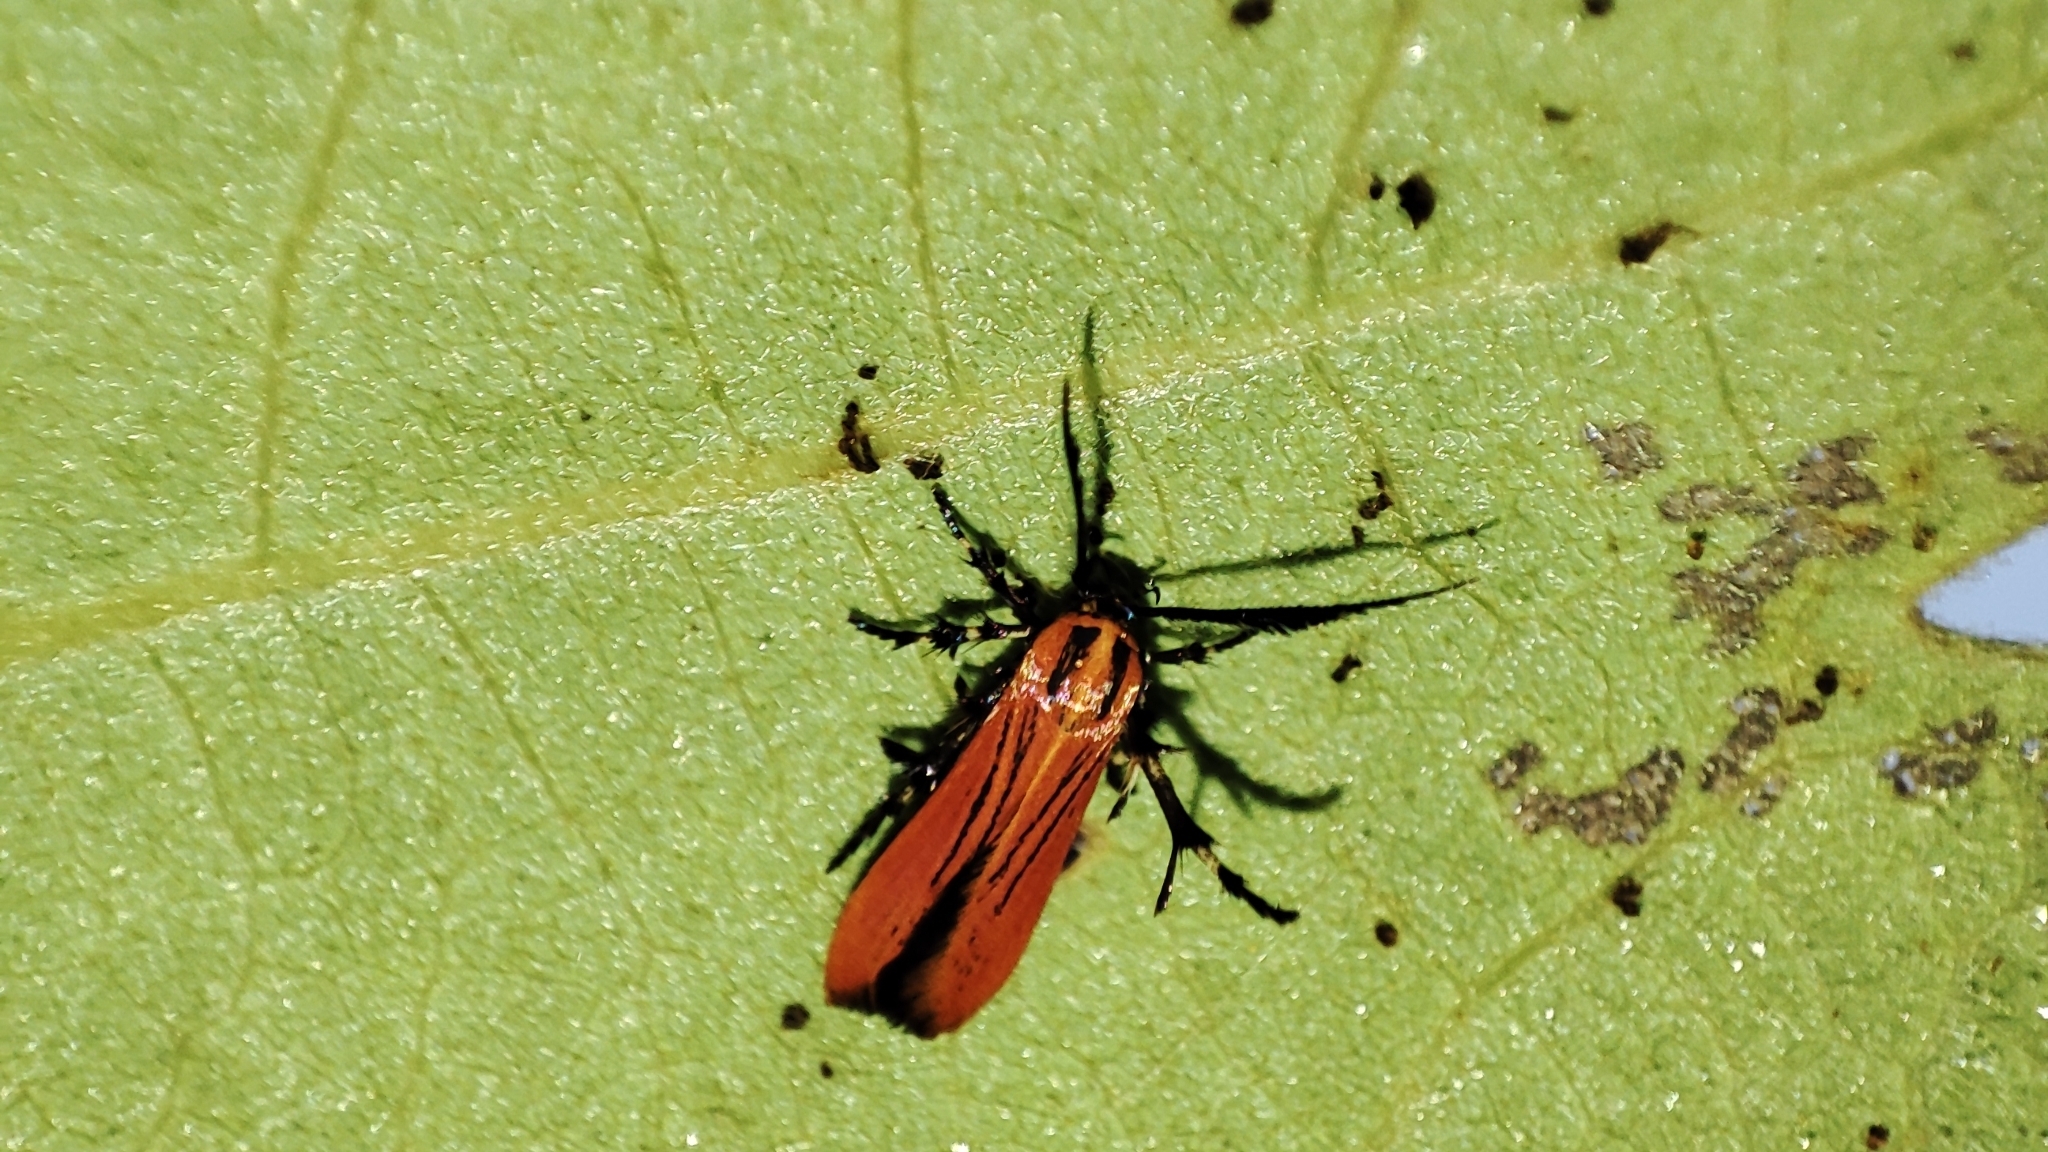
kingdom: Animalia
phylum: Arthropoda
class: Insecta
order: Lepidoptera
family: Stathmopodidae
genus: Oedematopoda
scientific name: Oedematopoda Atkinsonia swetlanae
